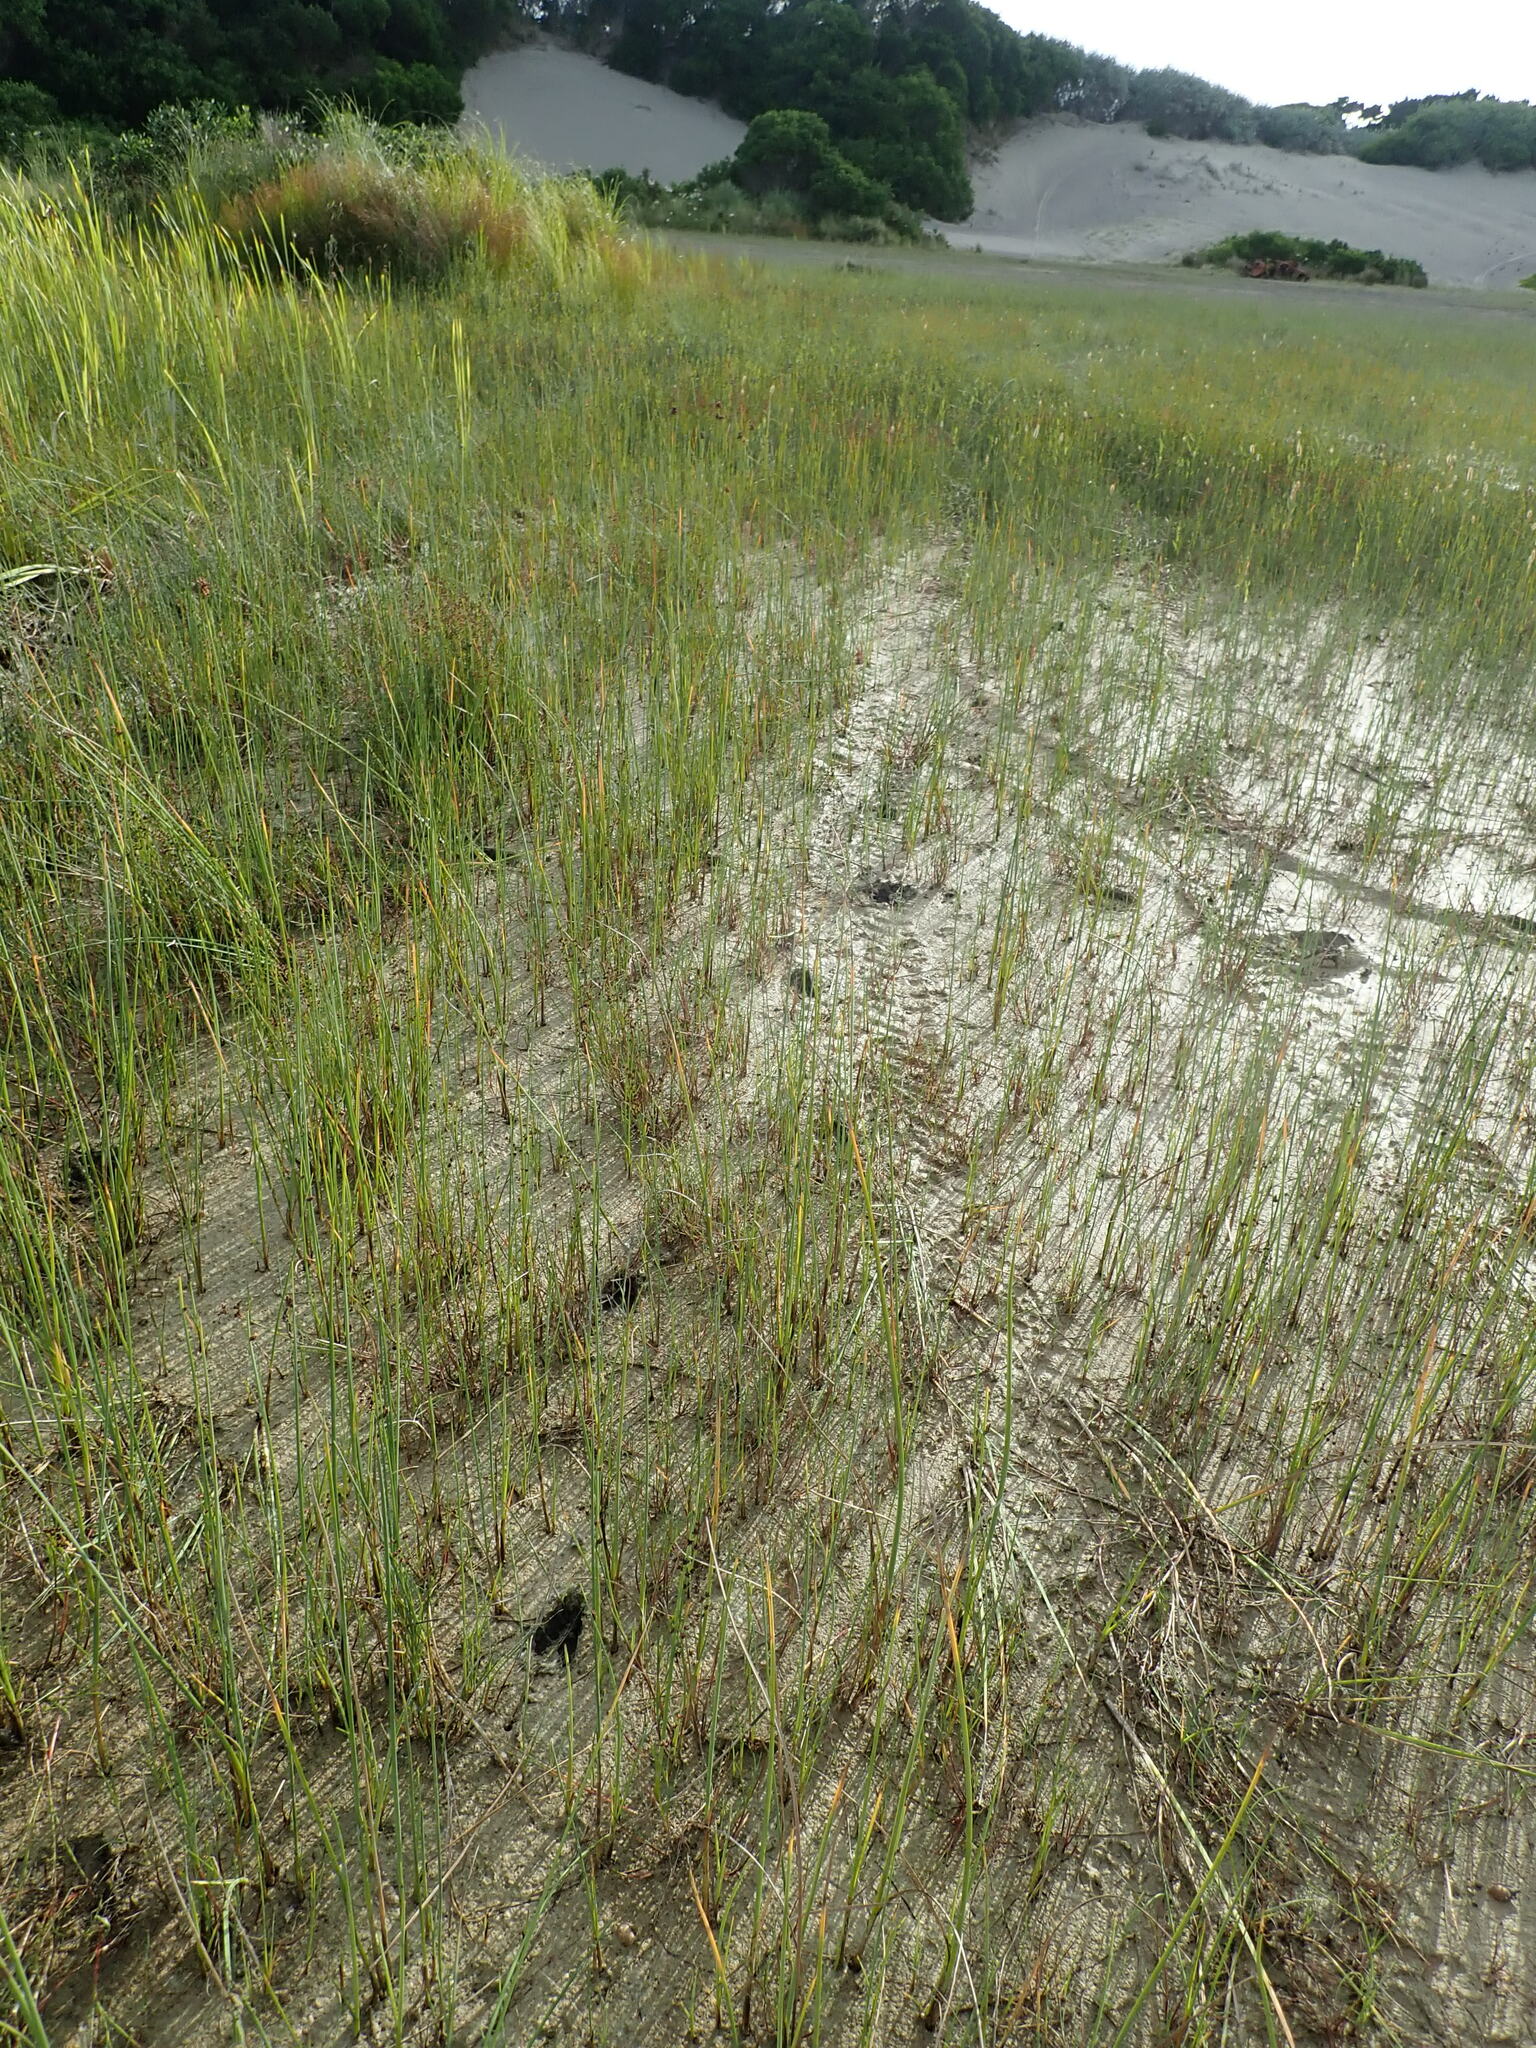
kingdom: Animalia
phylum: Chordata
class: Mammalia
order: Artiodactyla
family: Cervidae
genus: Rusa
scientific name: Rusa unicolor
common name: Sambar
